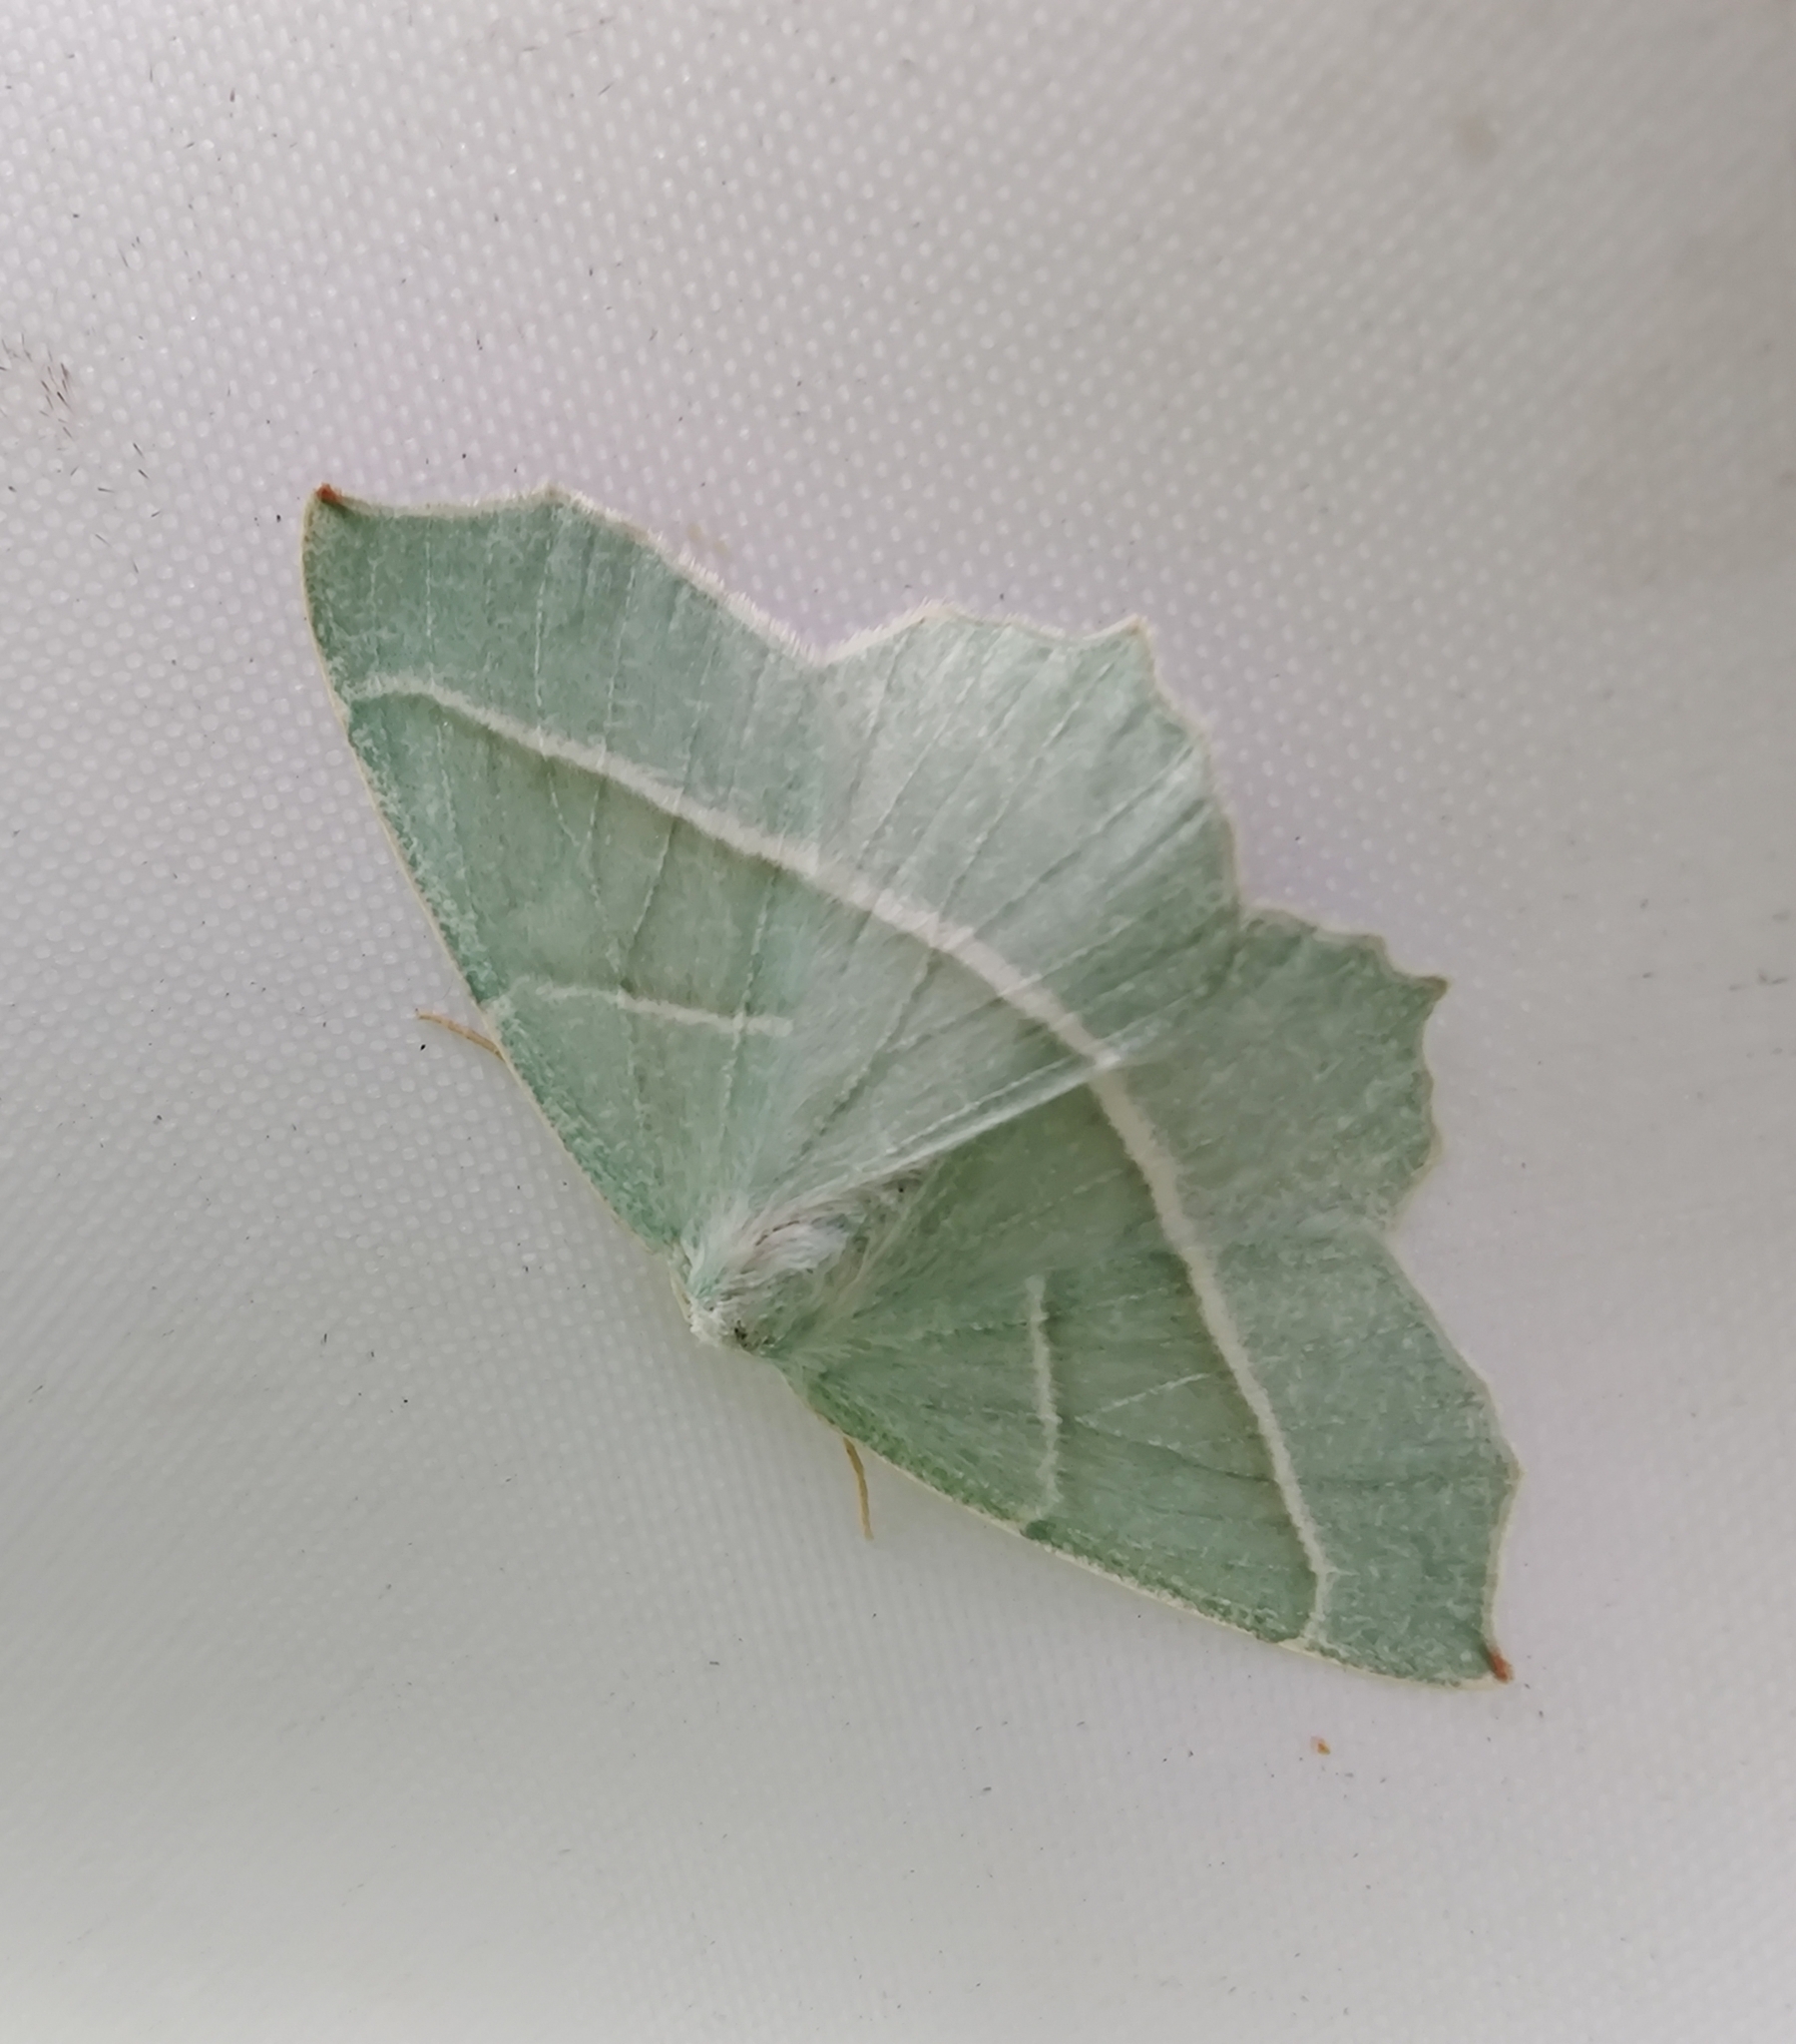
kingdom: Animalia
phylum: Arthropoda
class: Insecta
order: Lepidoptera
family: Geometridae
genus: Campaea
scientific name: Campaea margaritaria
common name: Light emerald
